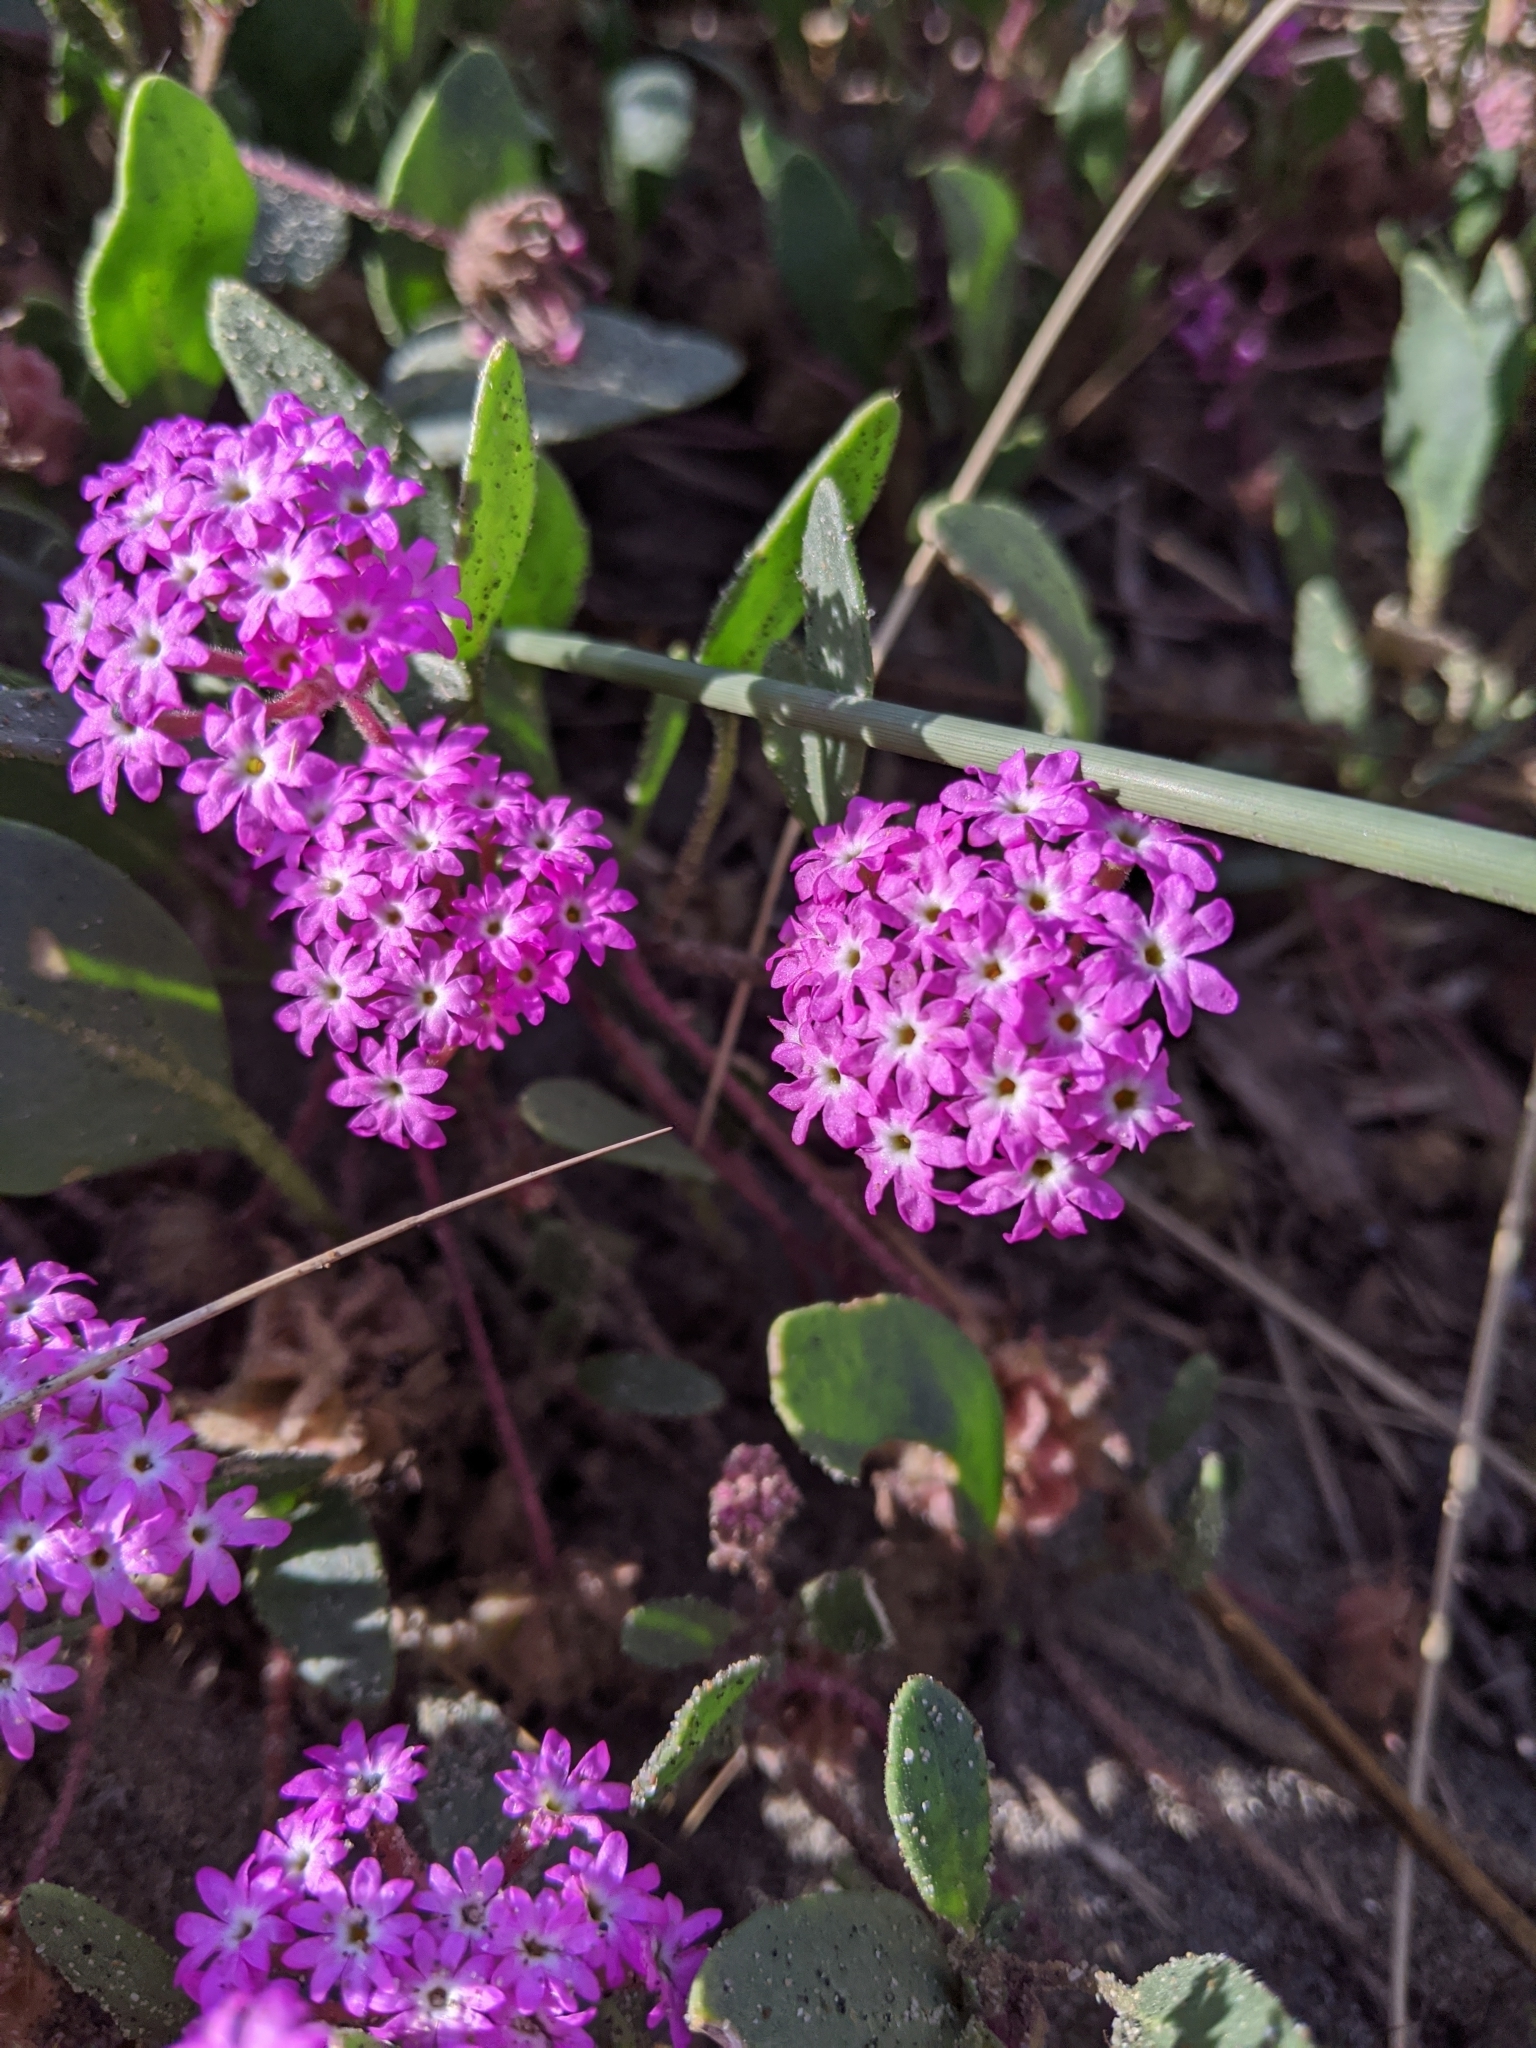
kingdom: Plantae
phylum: Tracheophyta
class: Magnoliopsida
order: Caryophyllales
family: Nyctaginaceae
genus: Abronia
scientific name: Abronia umbellata
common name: Sand-verbena
